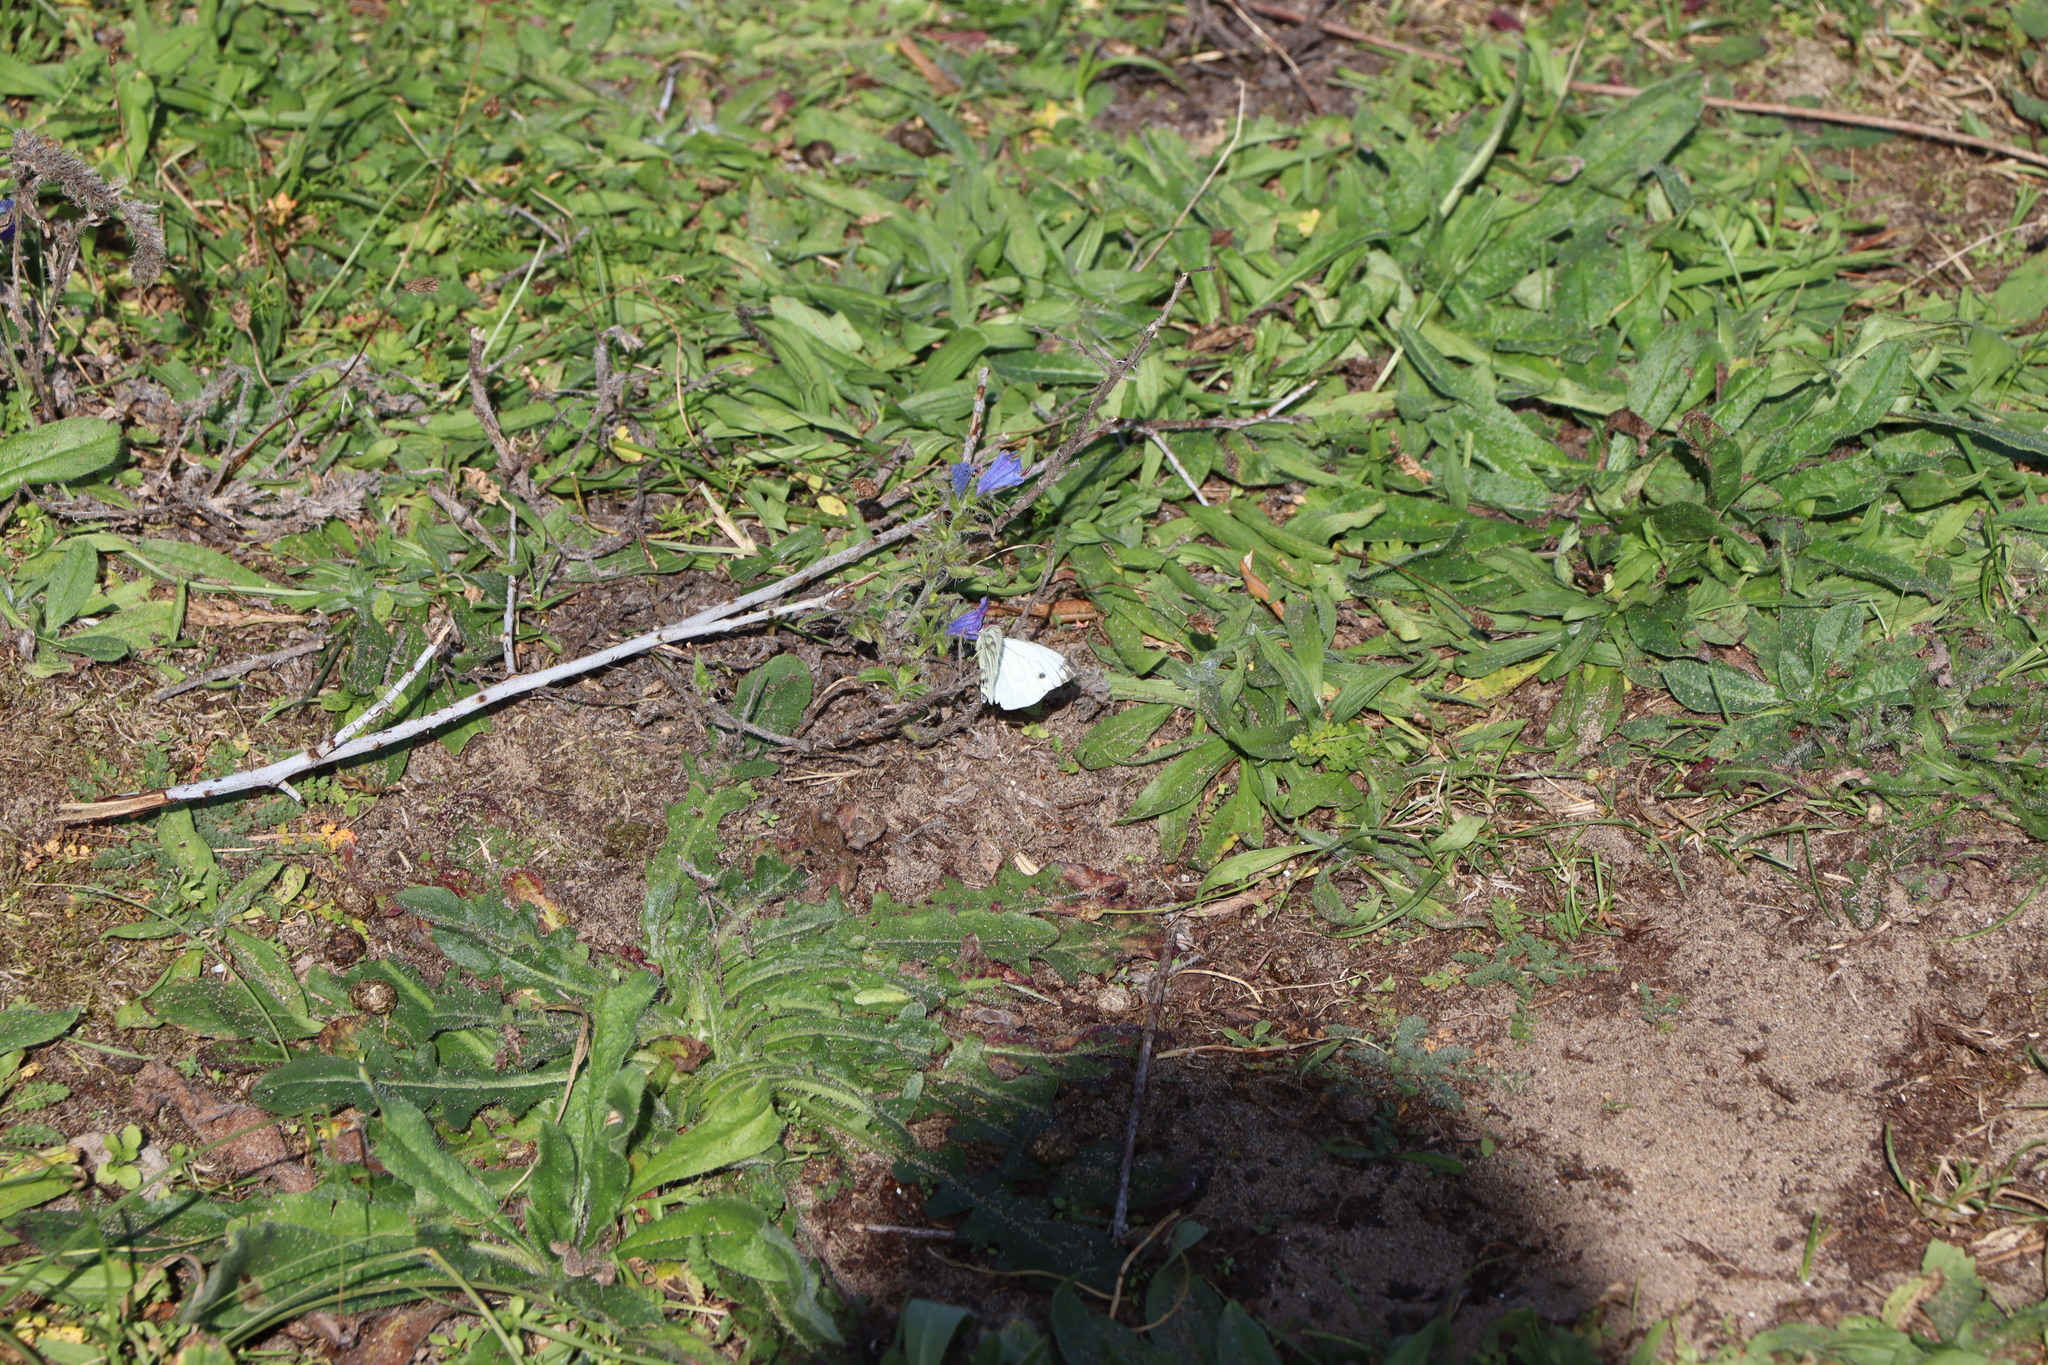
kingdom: Animalia
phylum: Arthropoda
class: Insecta
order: Lepidoptera
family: Pieridae
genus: Pieris
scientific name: Pieris napi
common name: Green-veined white
